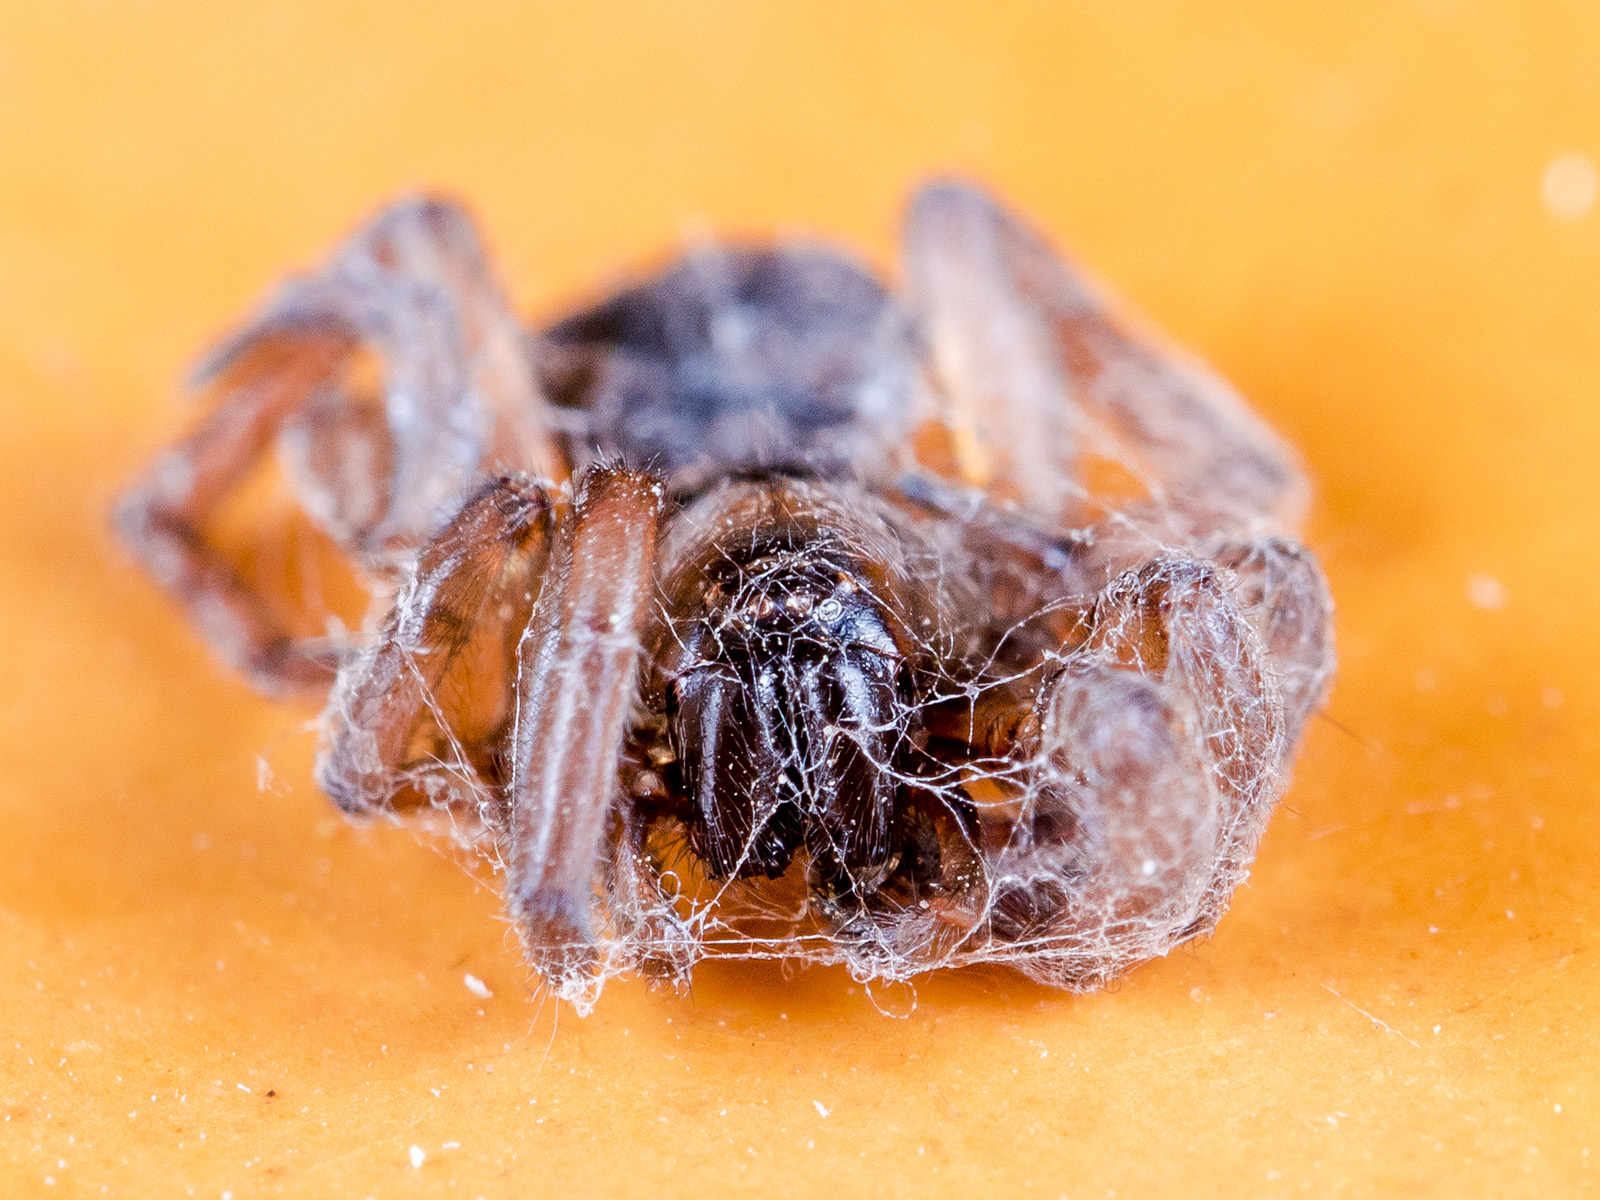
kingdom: Animalia
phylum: Arthropoda
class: Arachnida
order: Araneae
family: Gnaphosidae
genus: Haplodrassus
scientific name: Haplodrassus signifer
